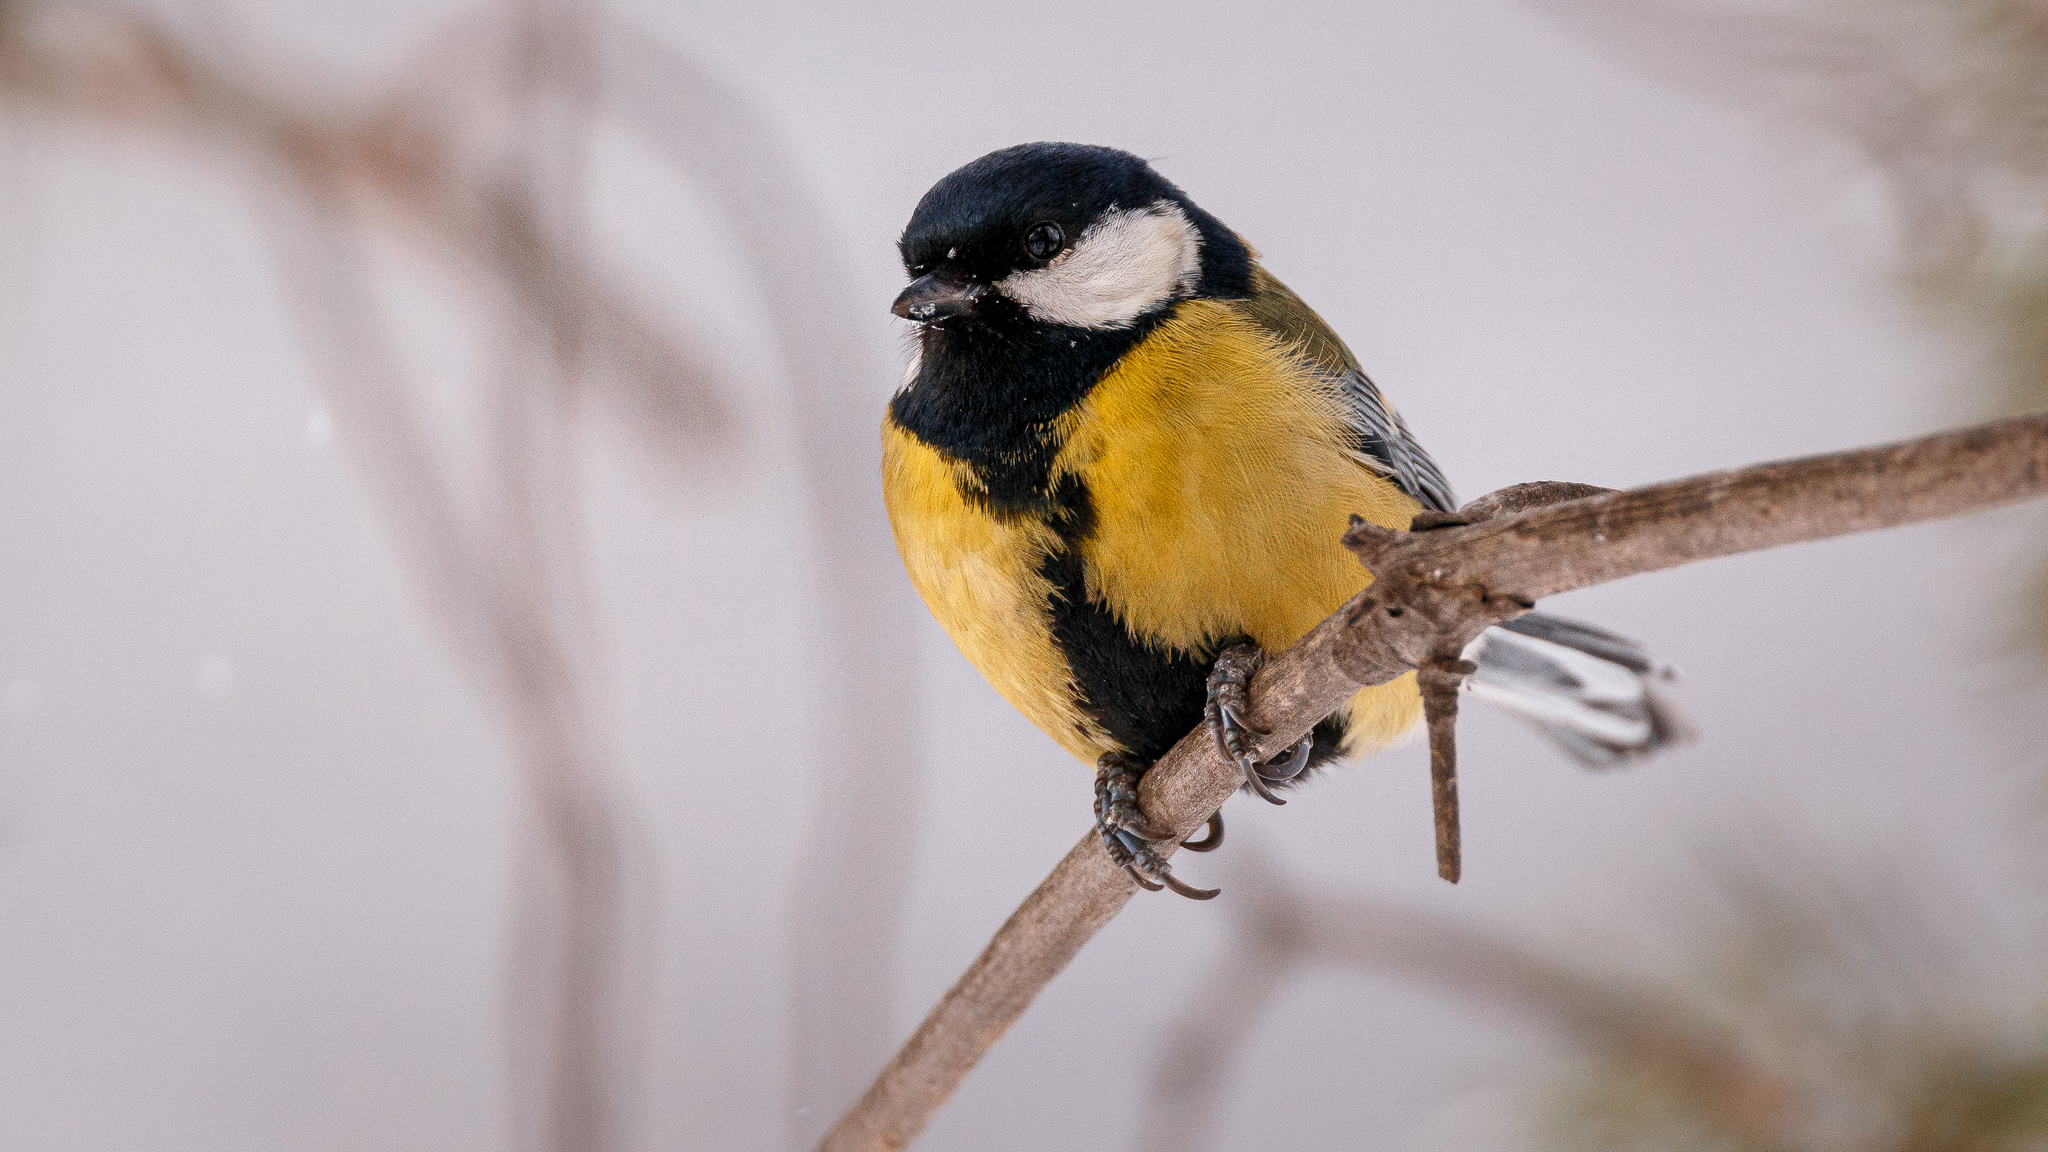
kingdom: Animalia
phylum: Chordata
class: Aves
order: Passeriformes
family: Paridae
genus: Parus
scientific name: Parus major
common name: Great tit
